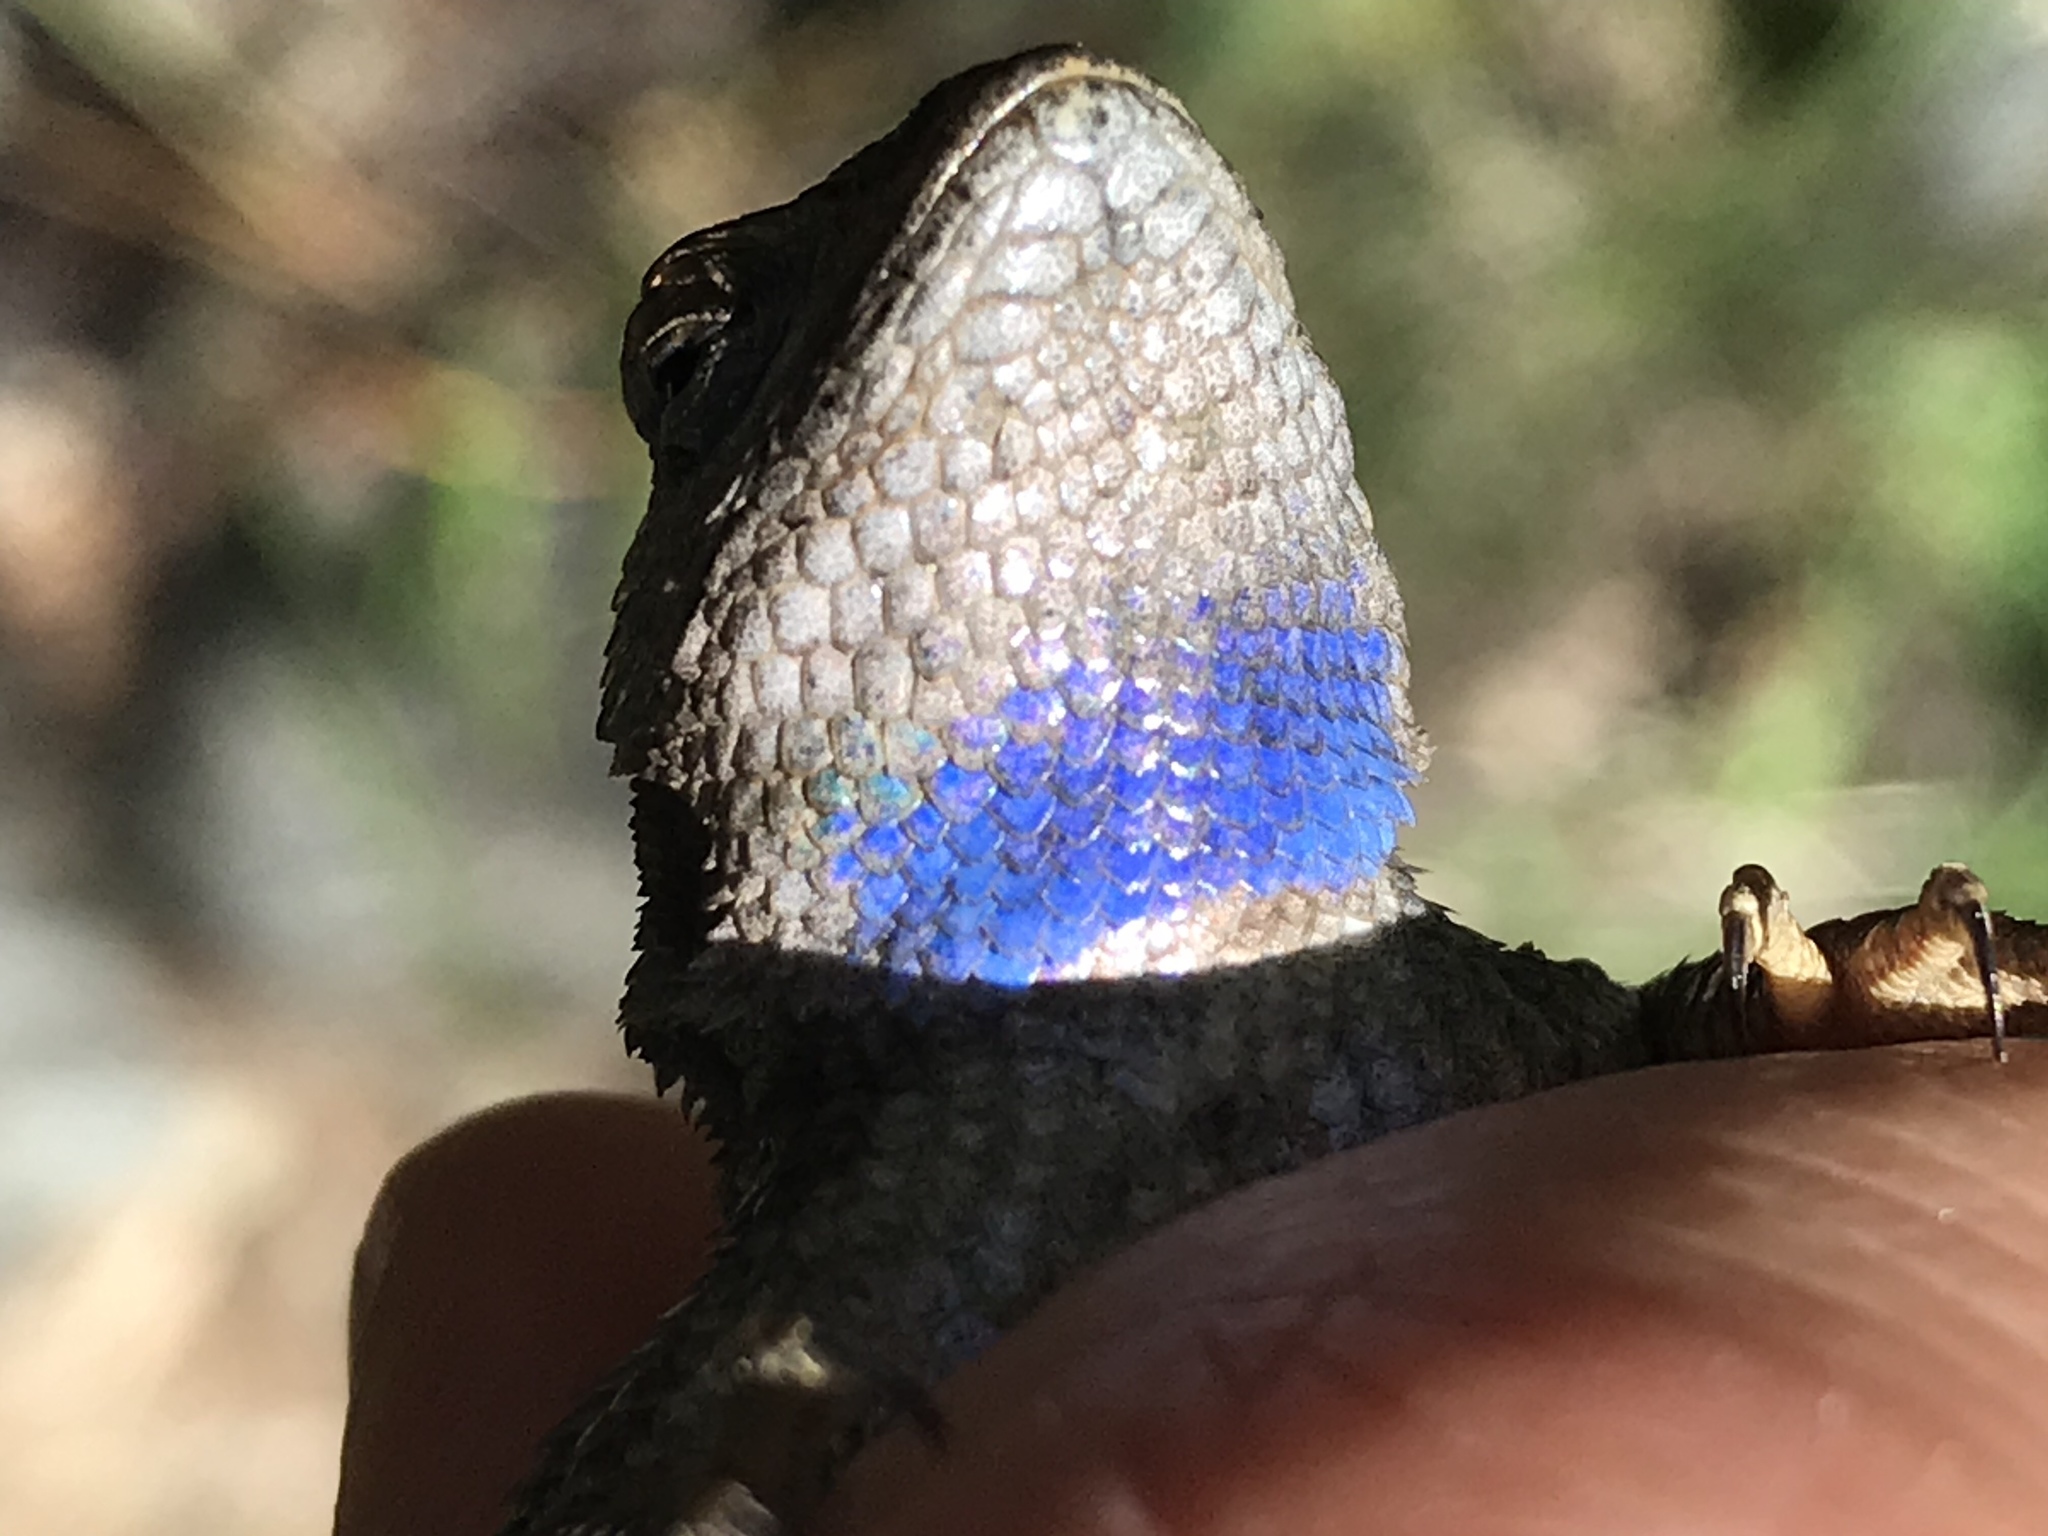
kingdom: Animalia
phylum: Chordata
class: Squamata
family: Phrynosomatidae
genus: Sceloporus
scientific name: Sceloporus occidentalis
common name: Western fence lizard
